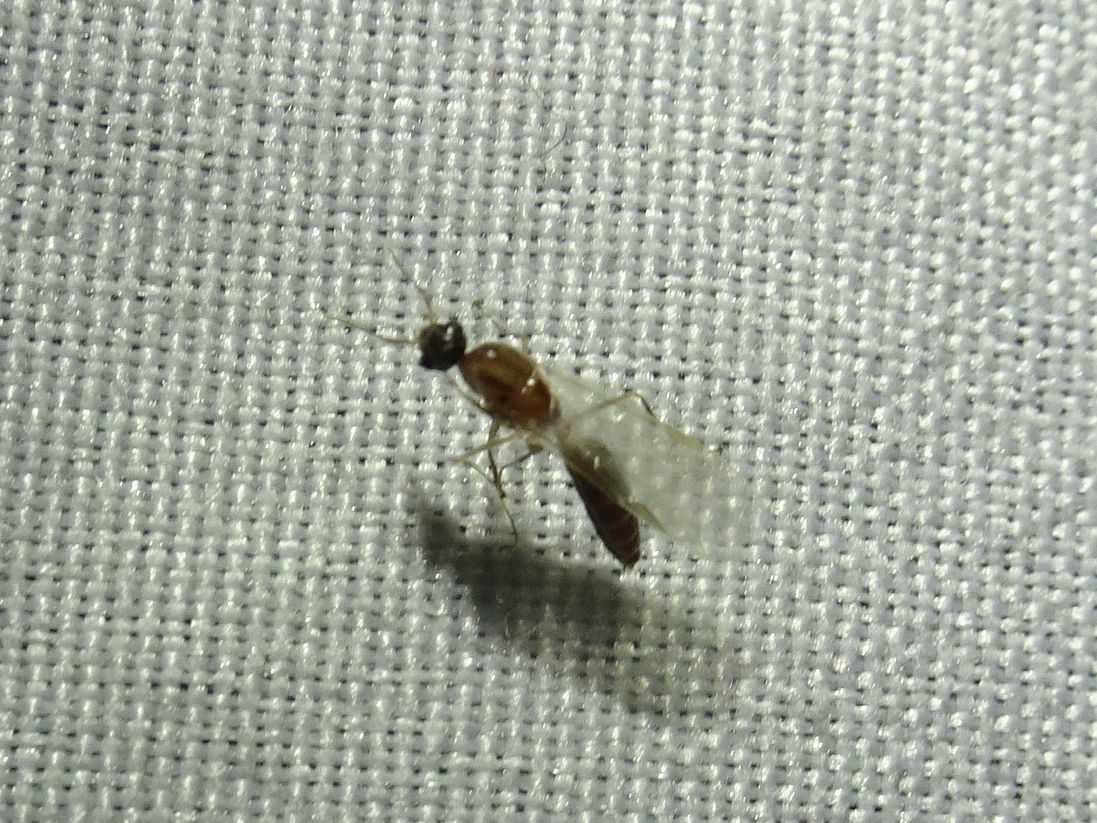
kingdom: Animalia
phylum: Arthropoda
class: Insecta
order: Hymenoptera
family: Formicidae
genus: Camponotus
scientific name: Camponotus truncatus
